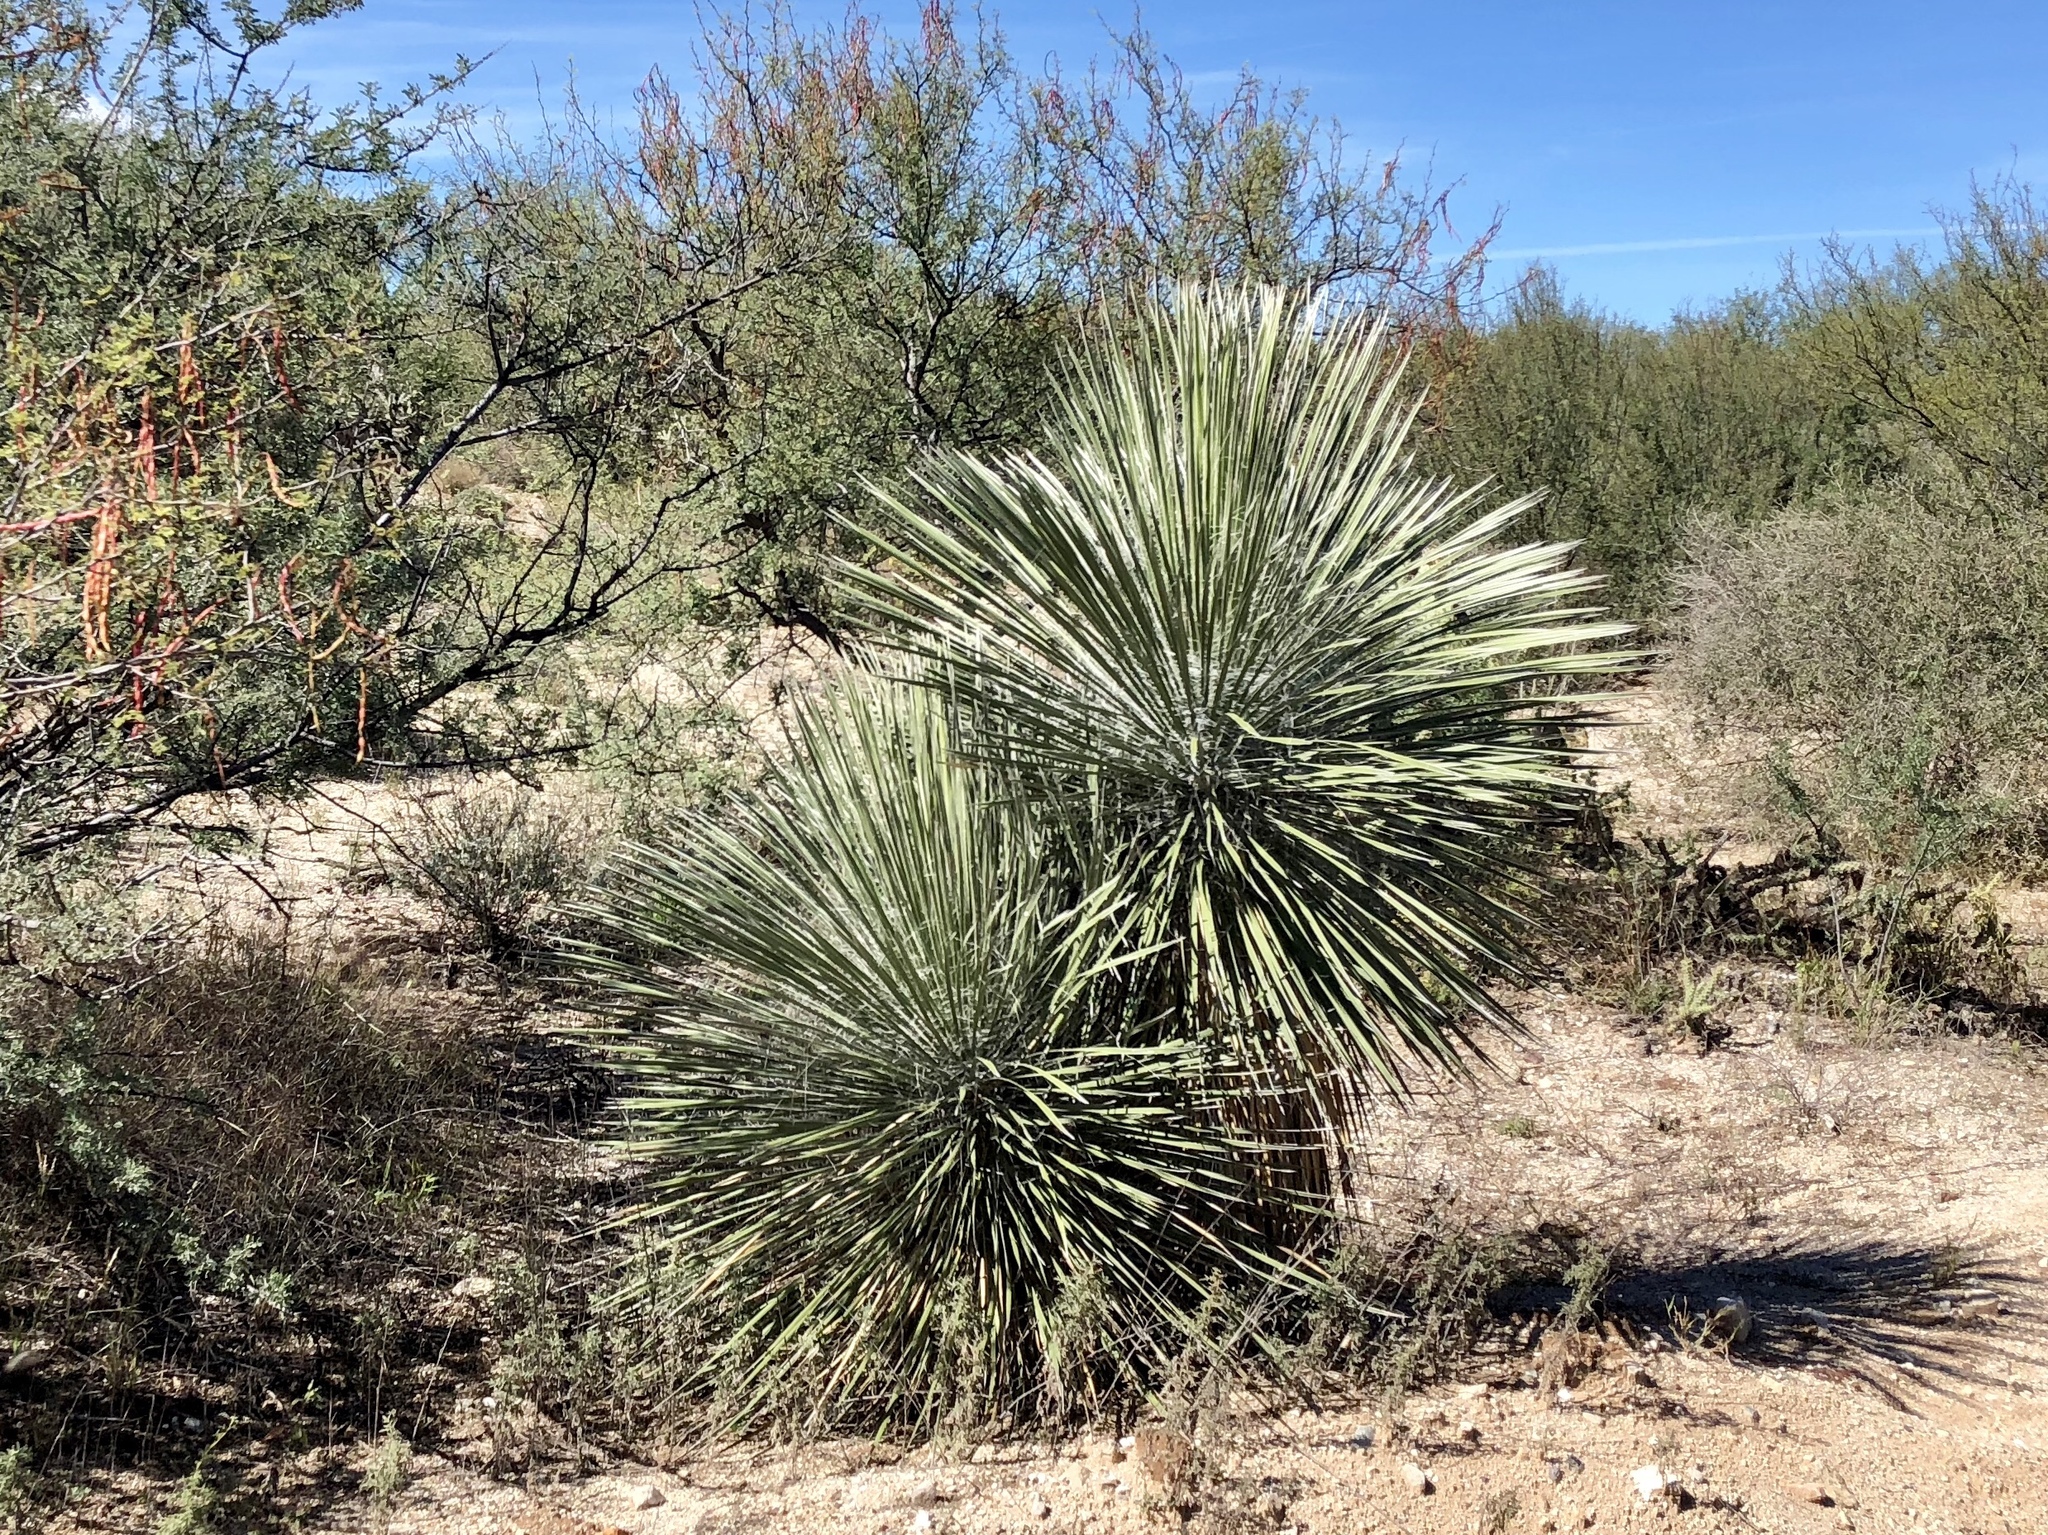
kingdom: Plantae
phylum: Tracheophyta
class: Liliopsida
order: Asparagales
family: Asparagaceae
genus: Yucca
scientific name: Yucca elata
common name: Palmella
